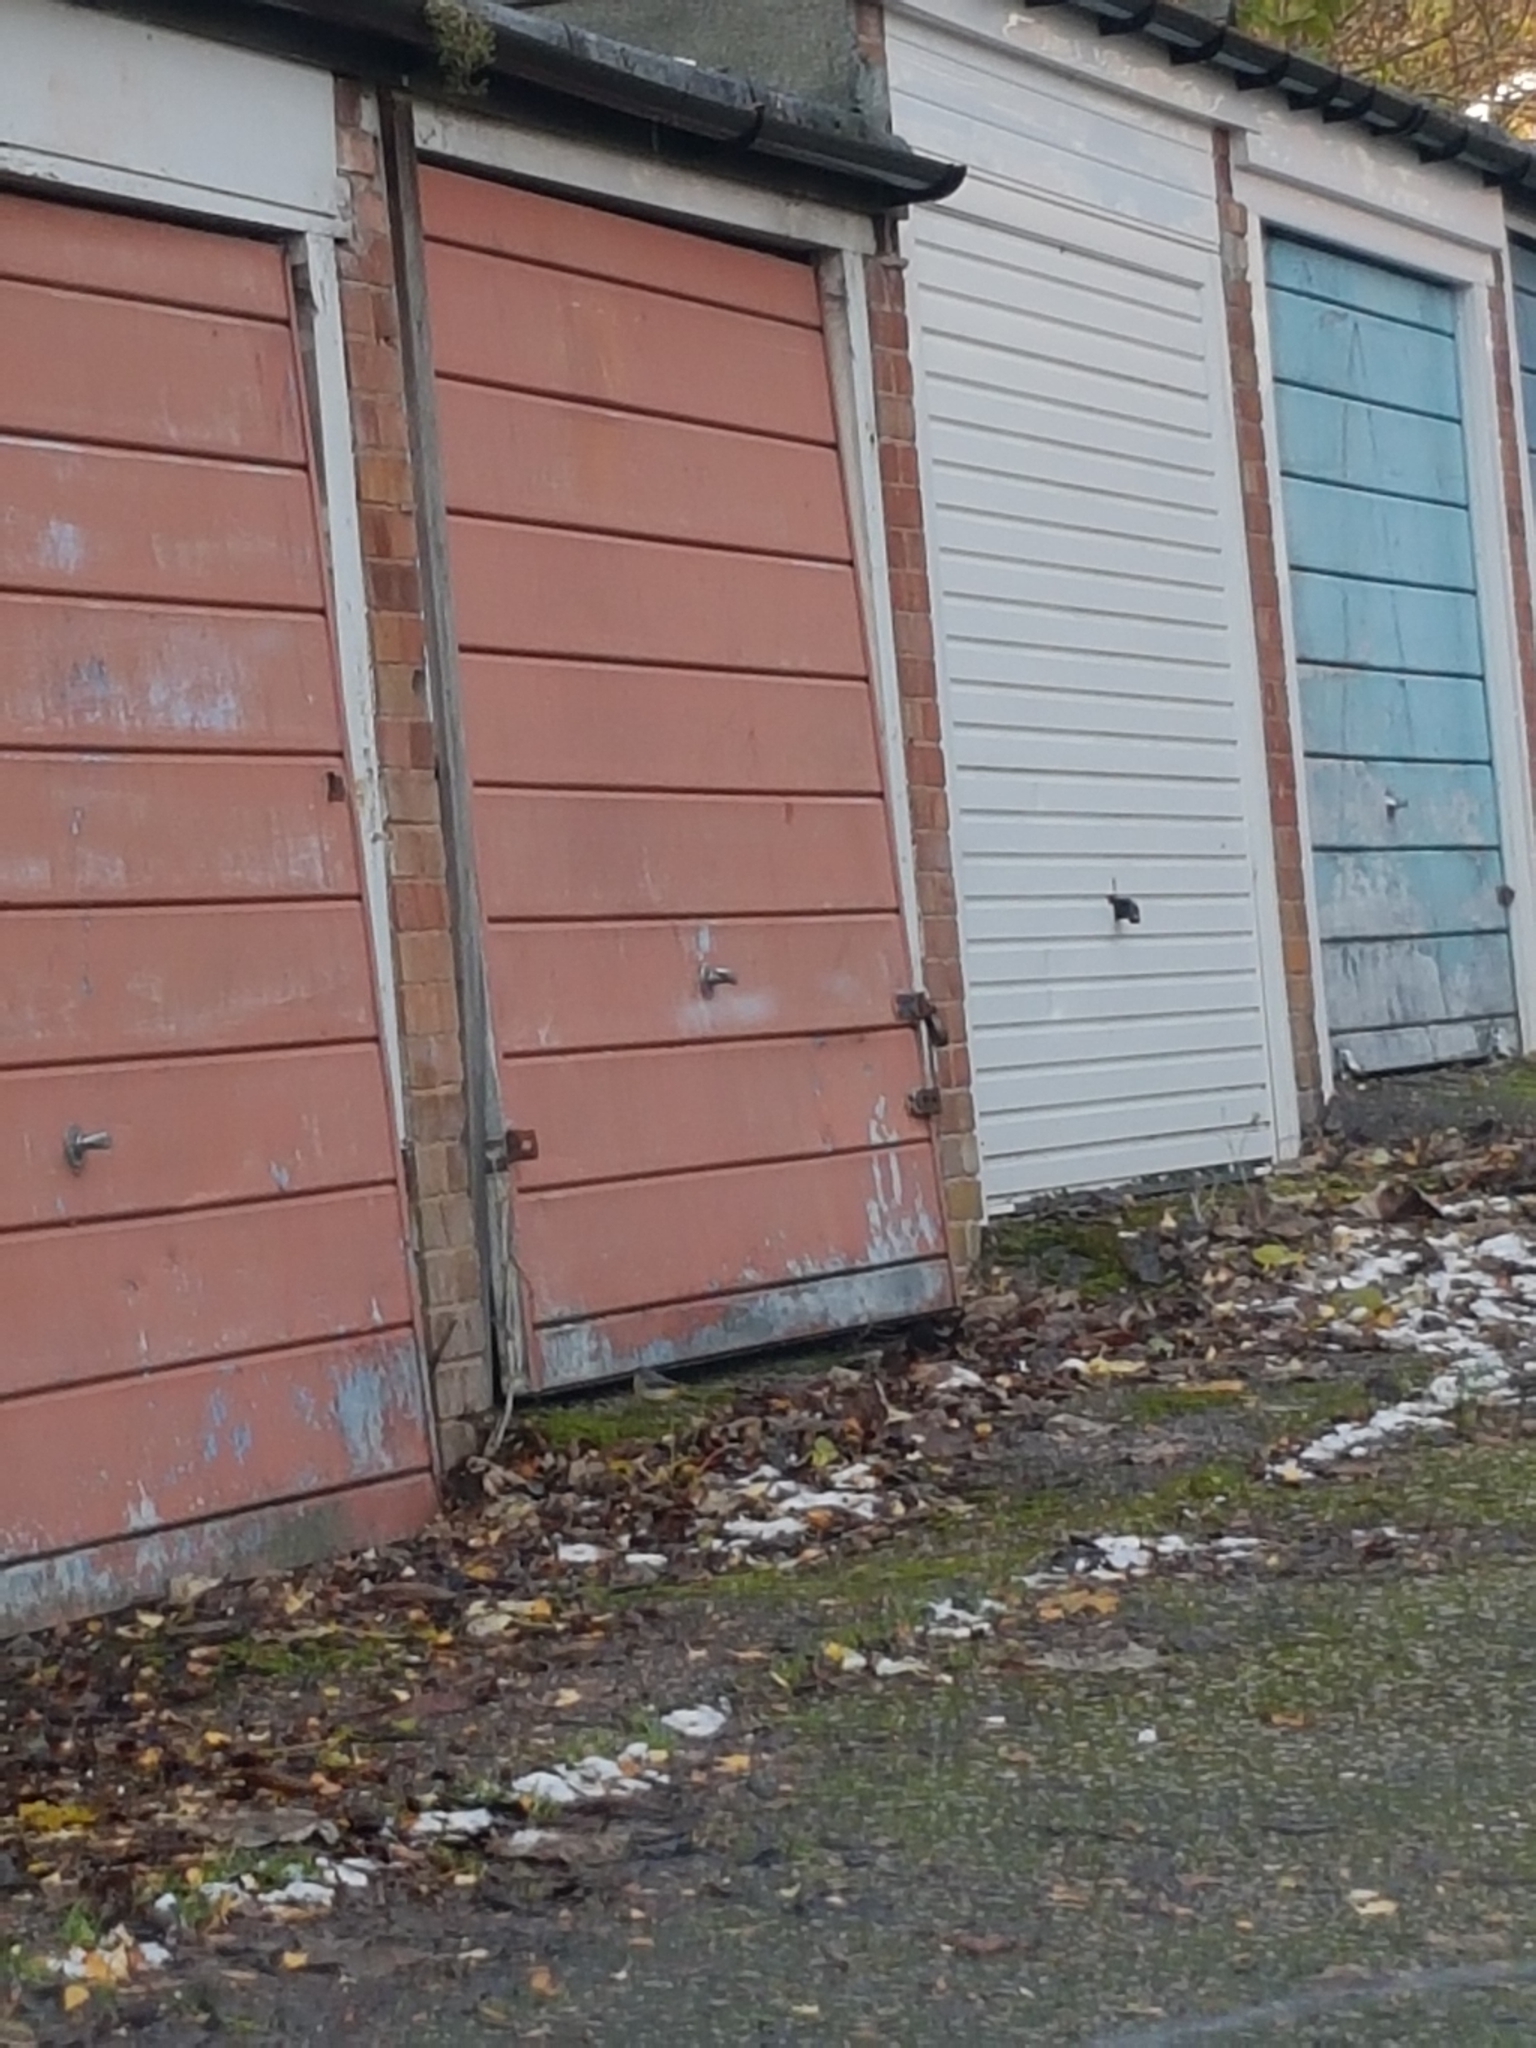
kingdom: Animalia
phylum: Chordata
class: Aves
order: Passeriformes
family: Motacillidae
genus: Motacilla
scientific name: Motacilla cinerea
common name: Grey wagtail
